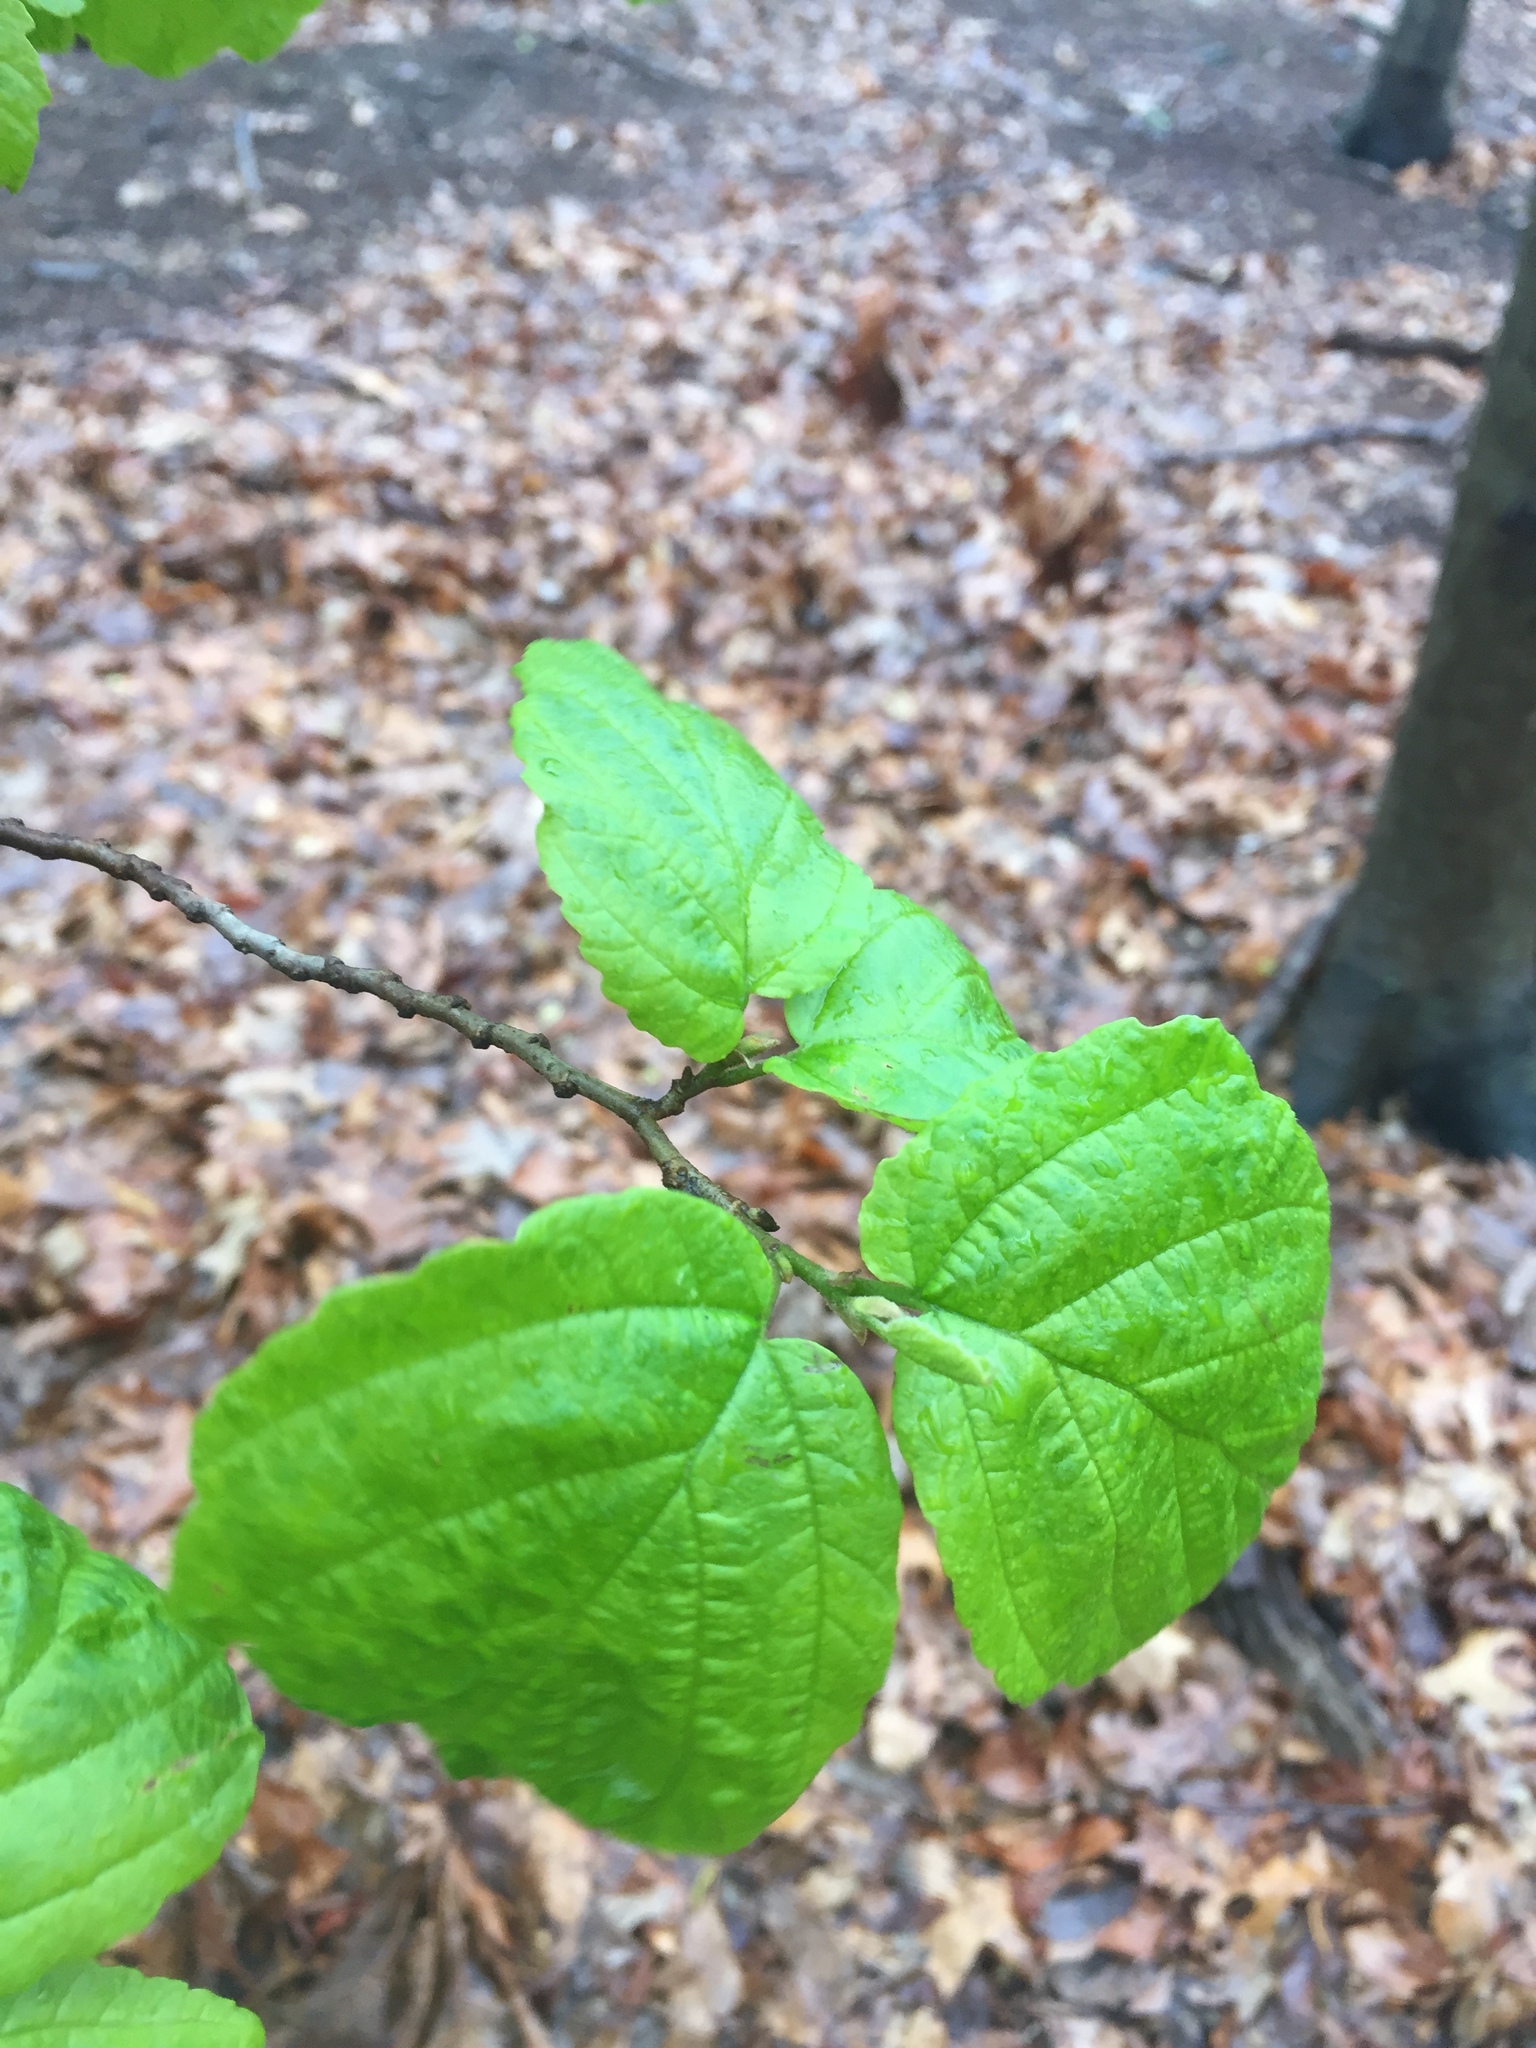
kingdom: Plantae
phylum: Tracheophyta
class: Magnoliopsida
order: Saxifragales
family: Hamamelidaceae
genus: Hamamelis
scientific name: Hamamelis virginiana
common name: Witch-hazel
